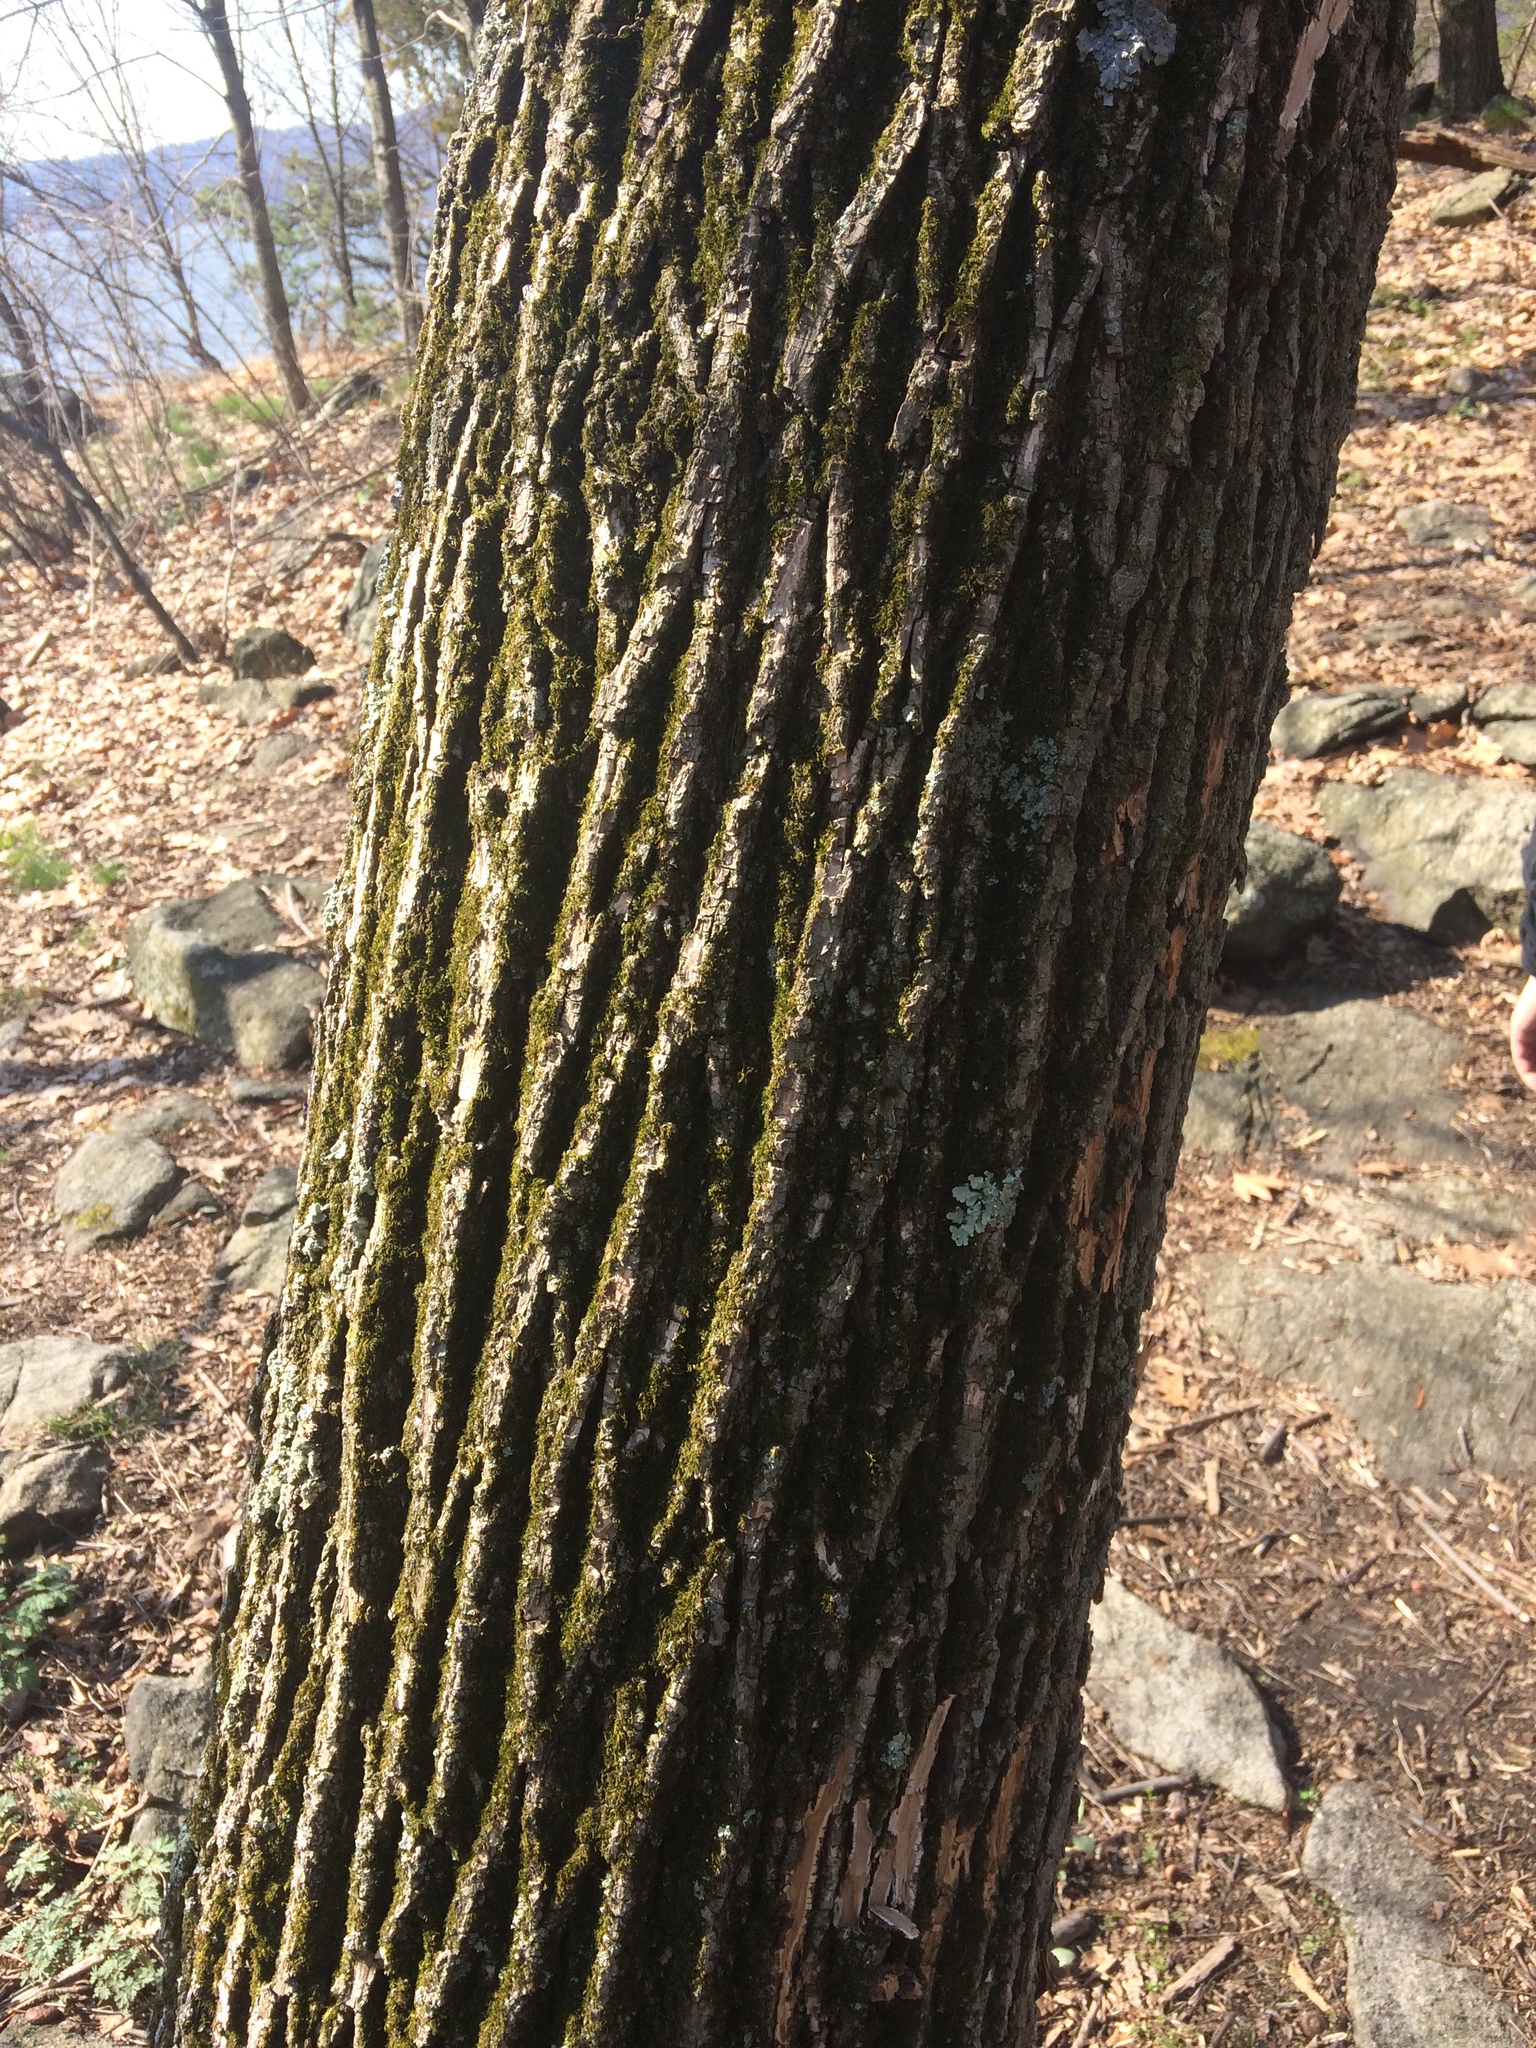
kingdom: Plantae
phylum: Tracheophyta
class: Magnoliopsida
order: Lamiales
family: Oleaceae
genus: Fraxinus
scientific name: Fraxinus americana
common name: White ash
